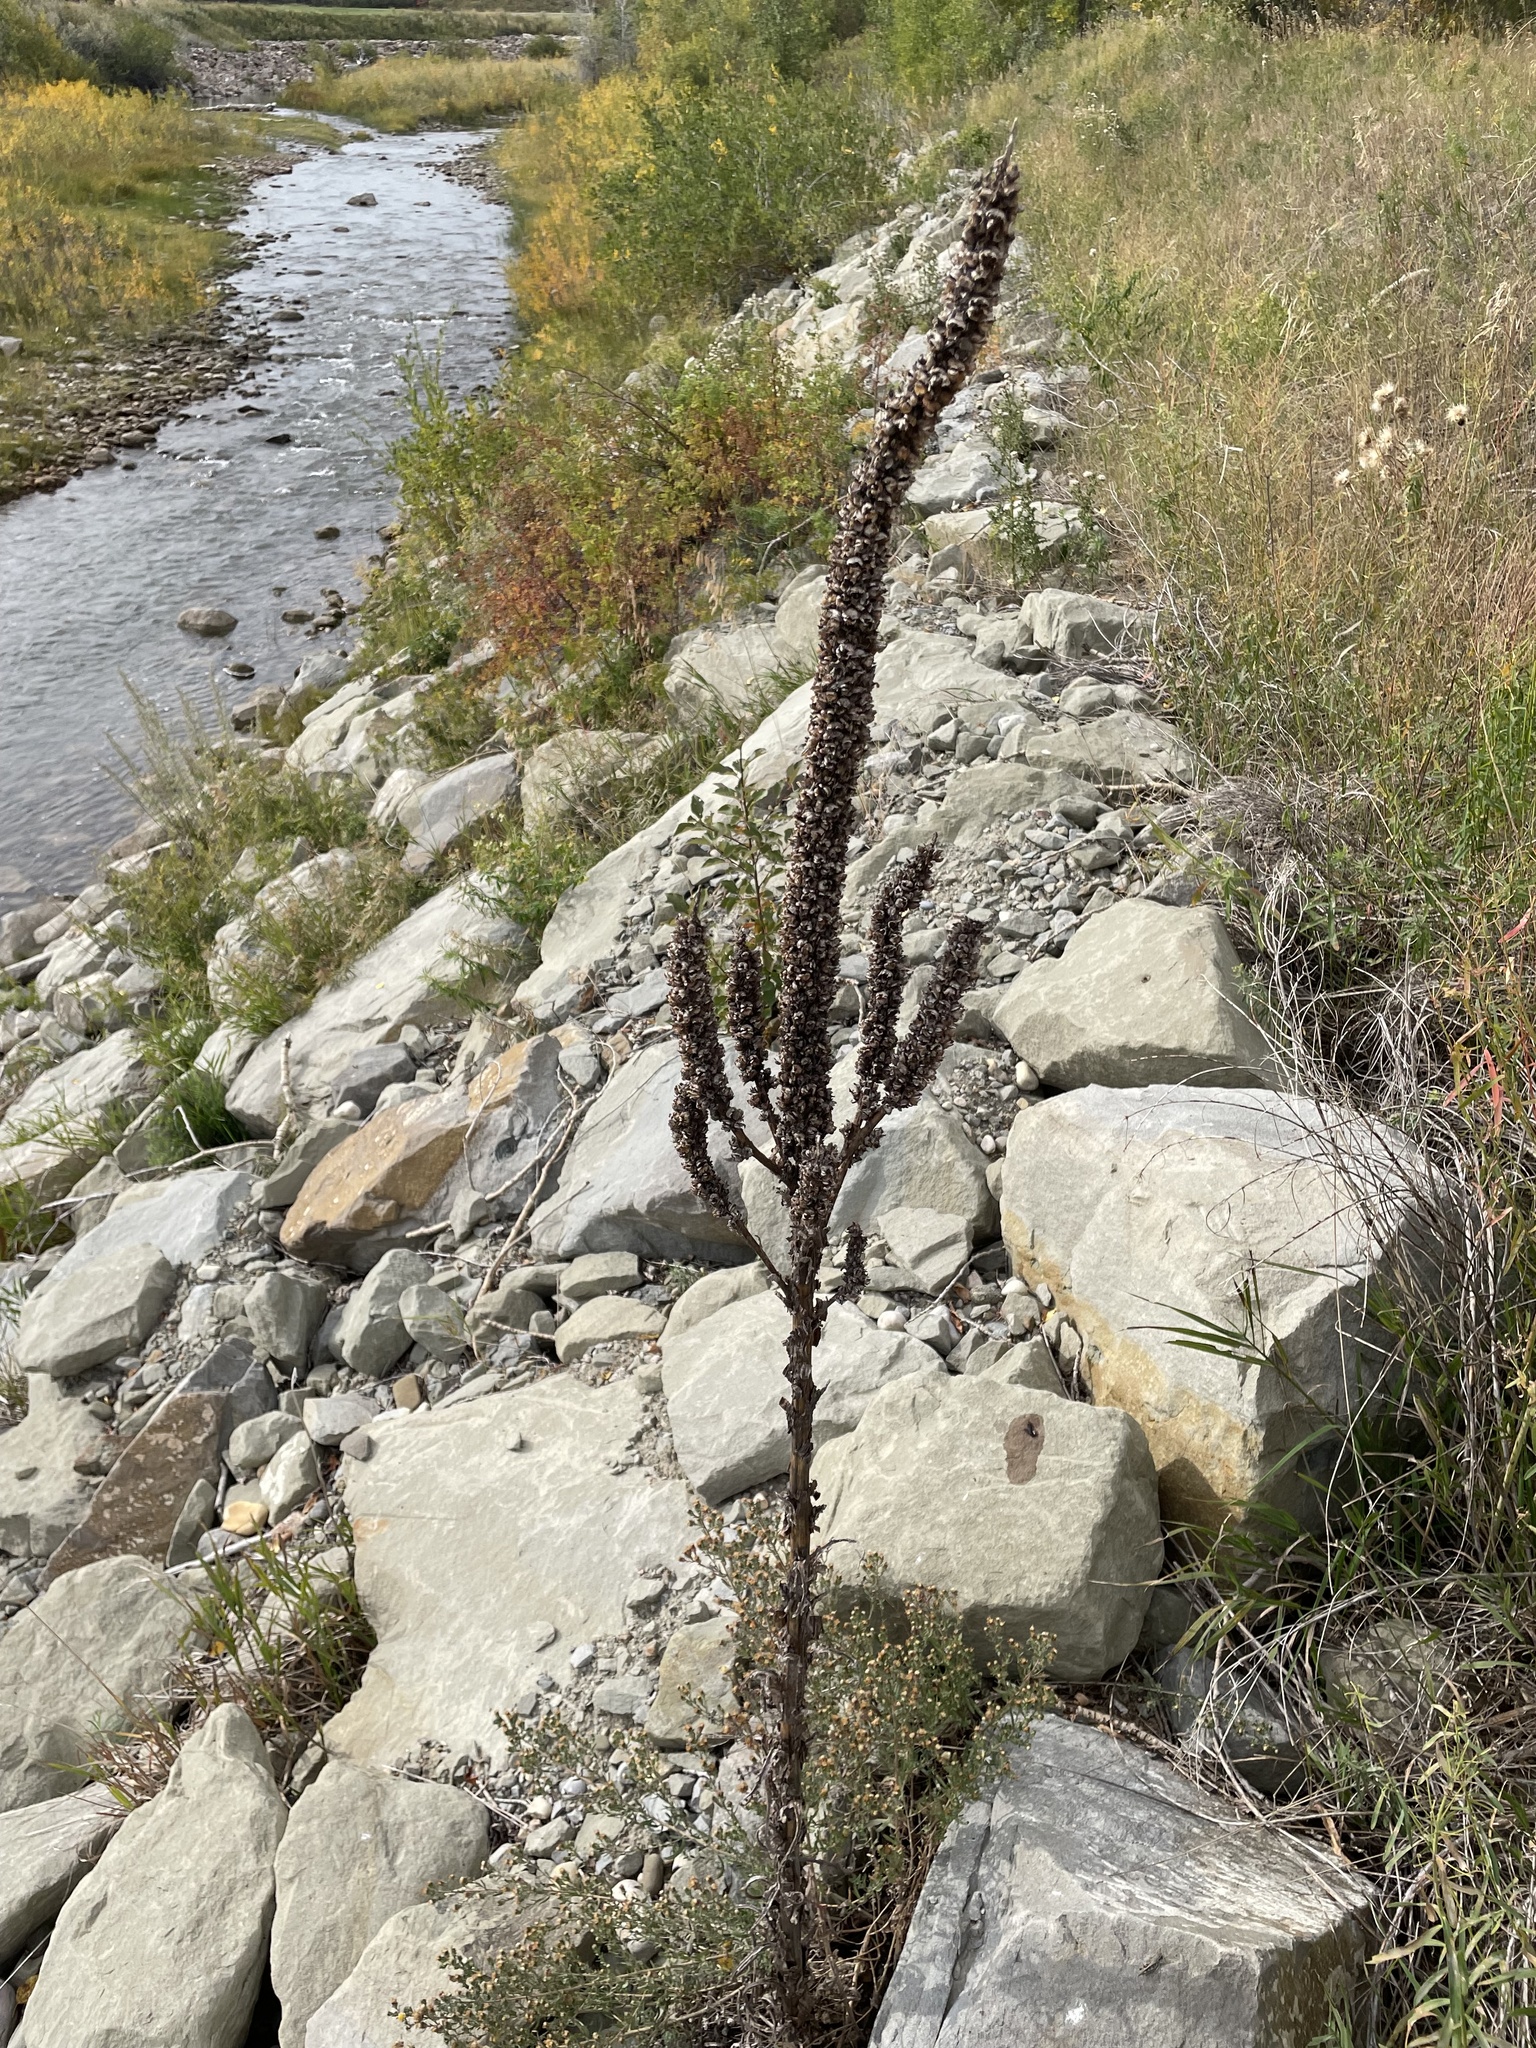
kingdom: Plantae
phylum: Tracheophyta
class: Magnoliopsida
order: Lamiales
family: Scrophulariaceae
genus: Verbascum
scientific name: Verbascum thapsus
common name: Common mullein
